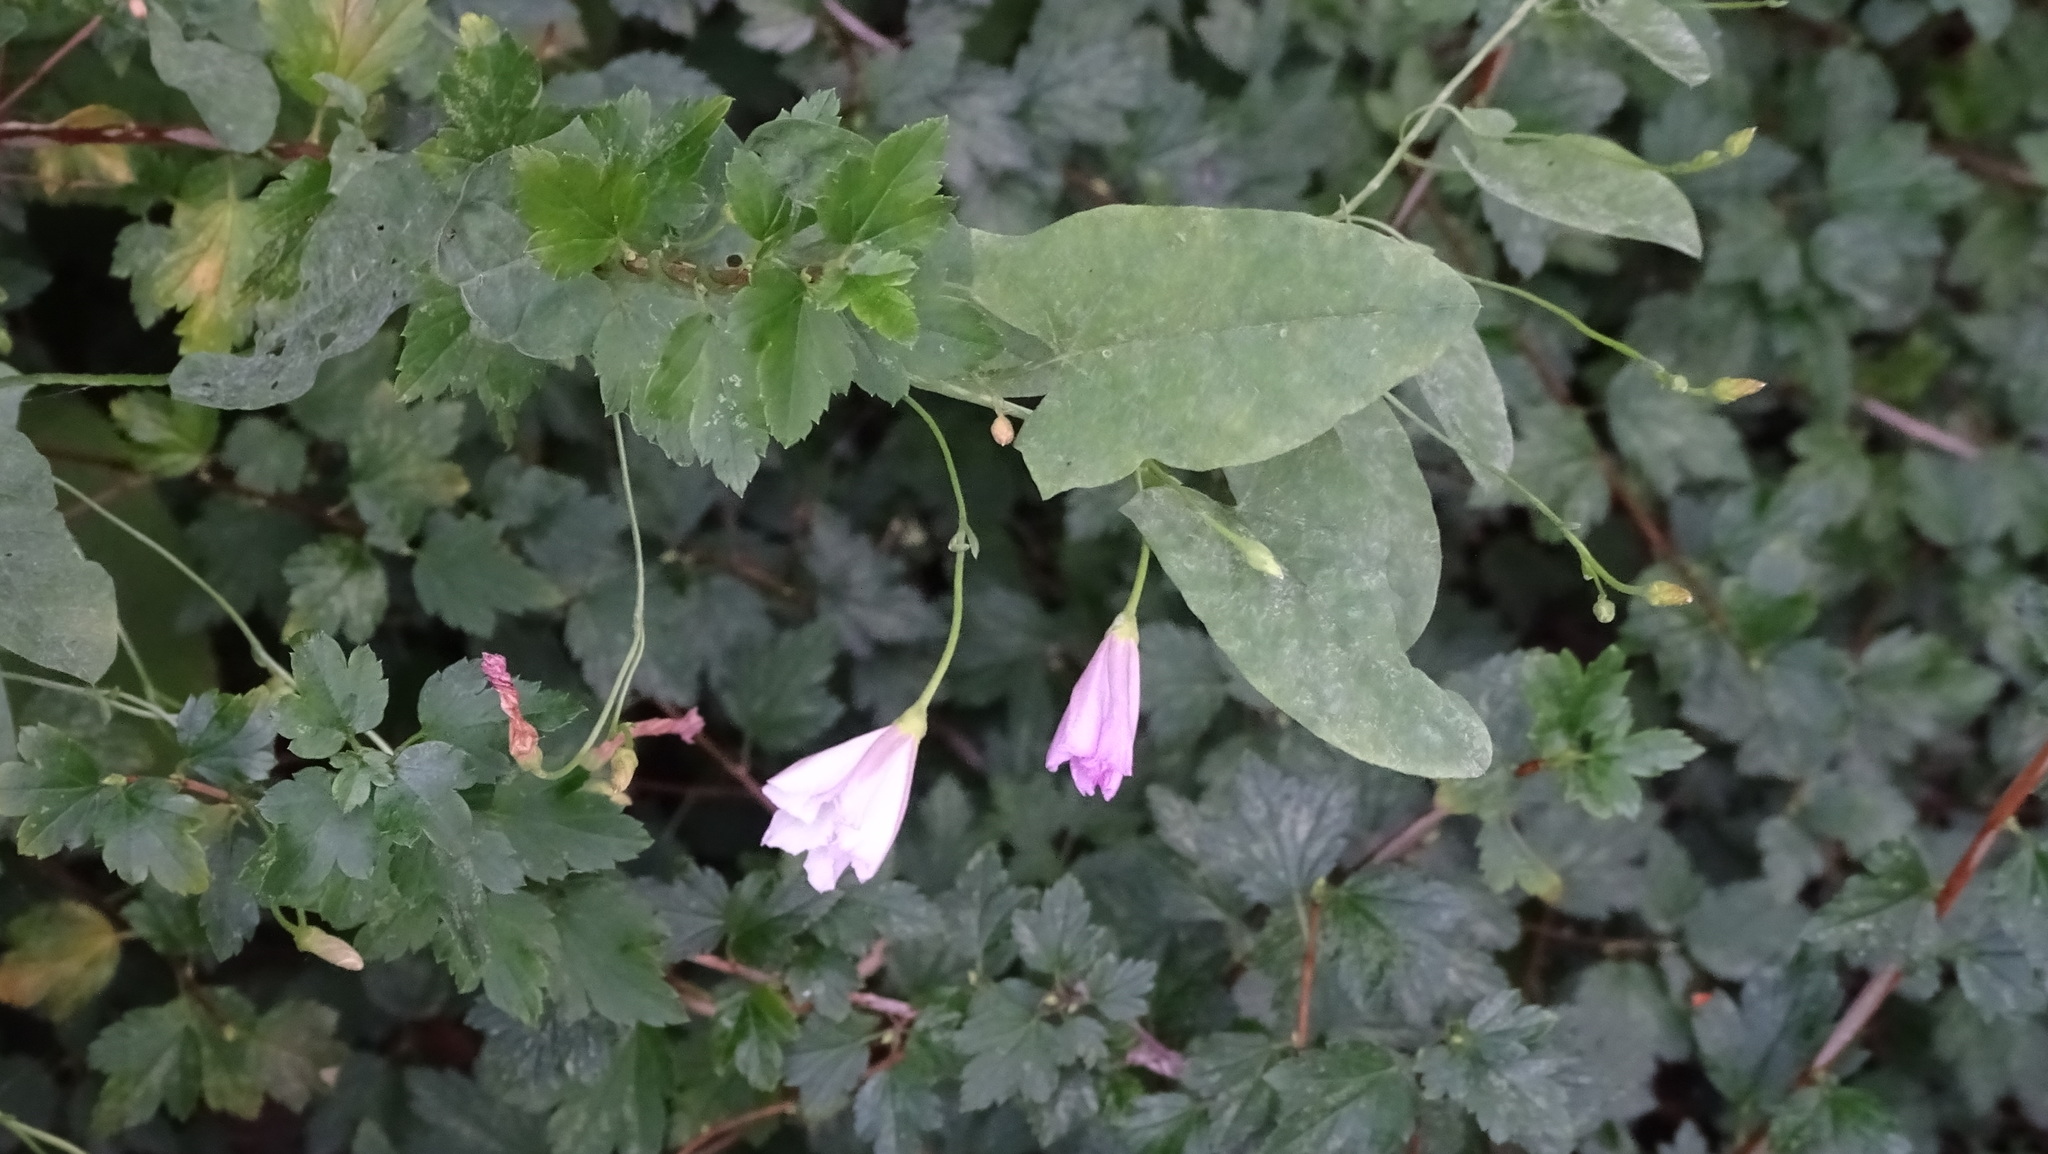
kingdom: Plantae
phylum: Tracheophyta
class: Magnoliopsida
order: Solanales
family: Convolvulaceae
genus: Convolvulus
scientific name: Convolvulus arvensis
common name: Field bindweed
